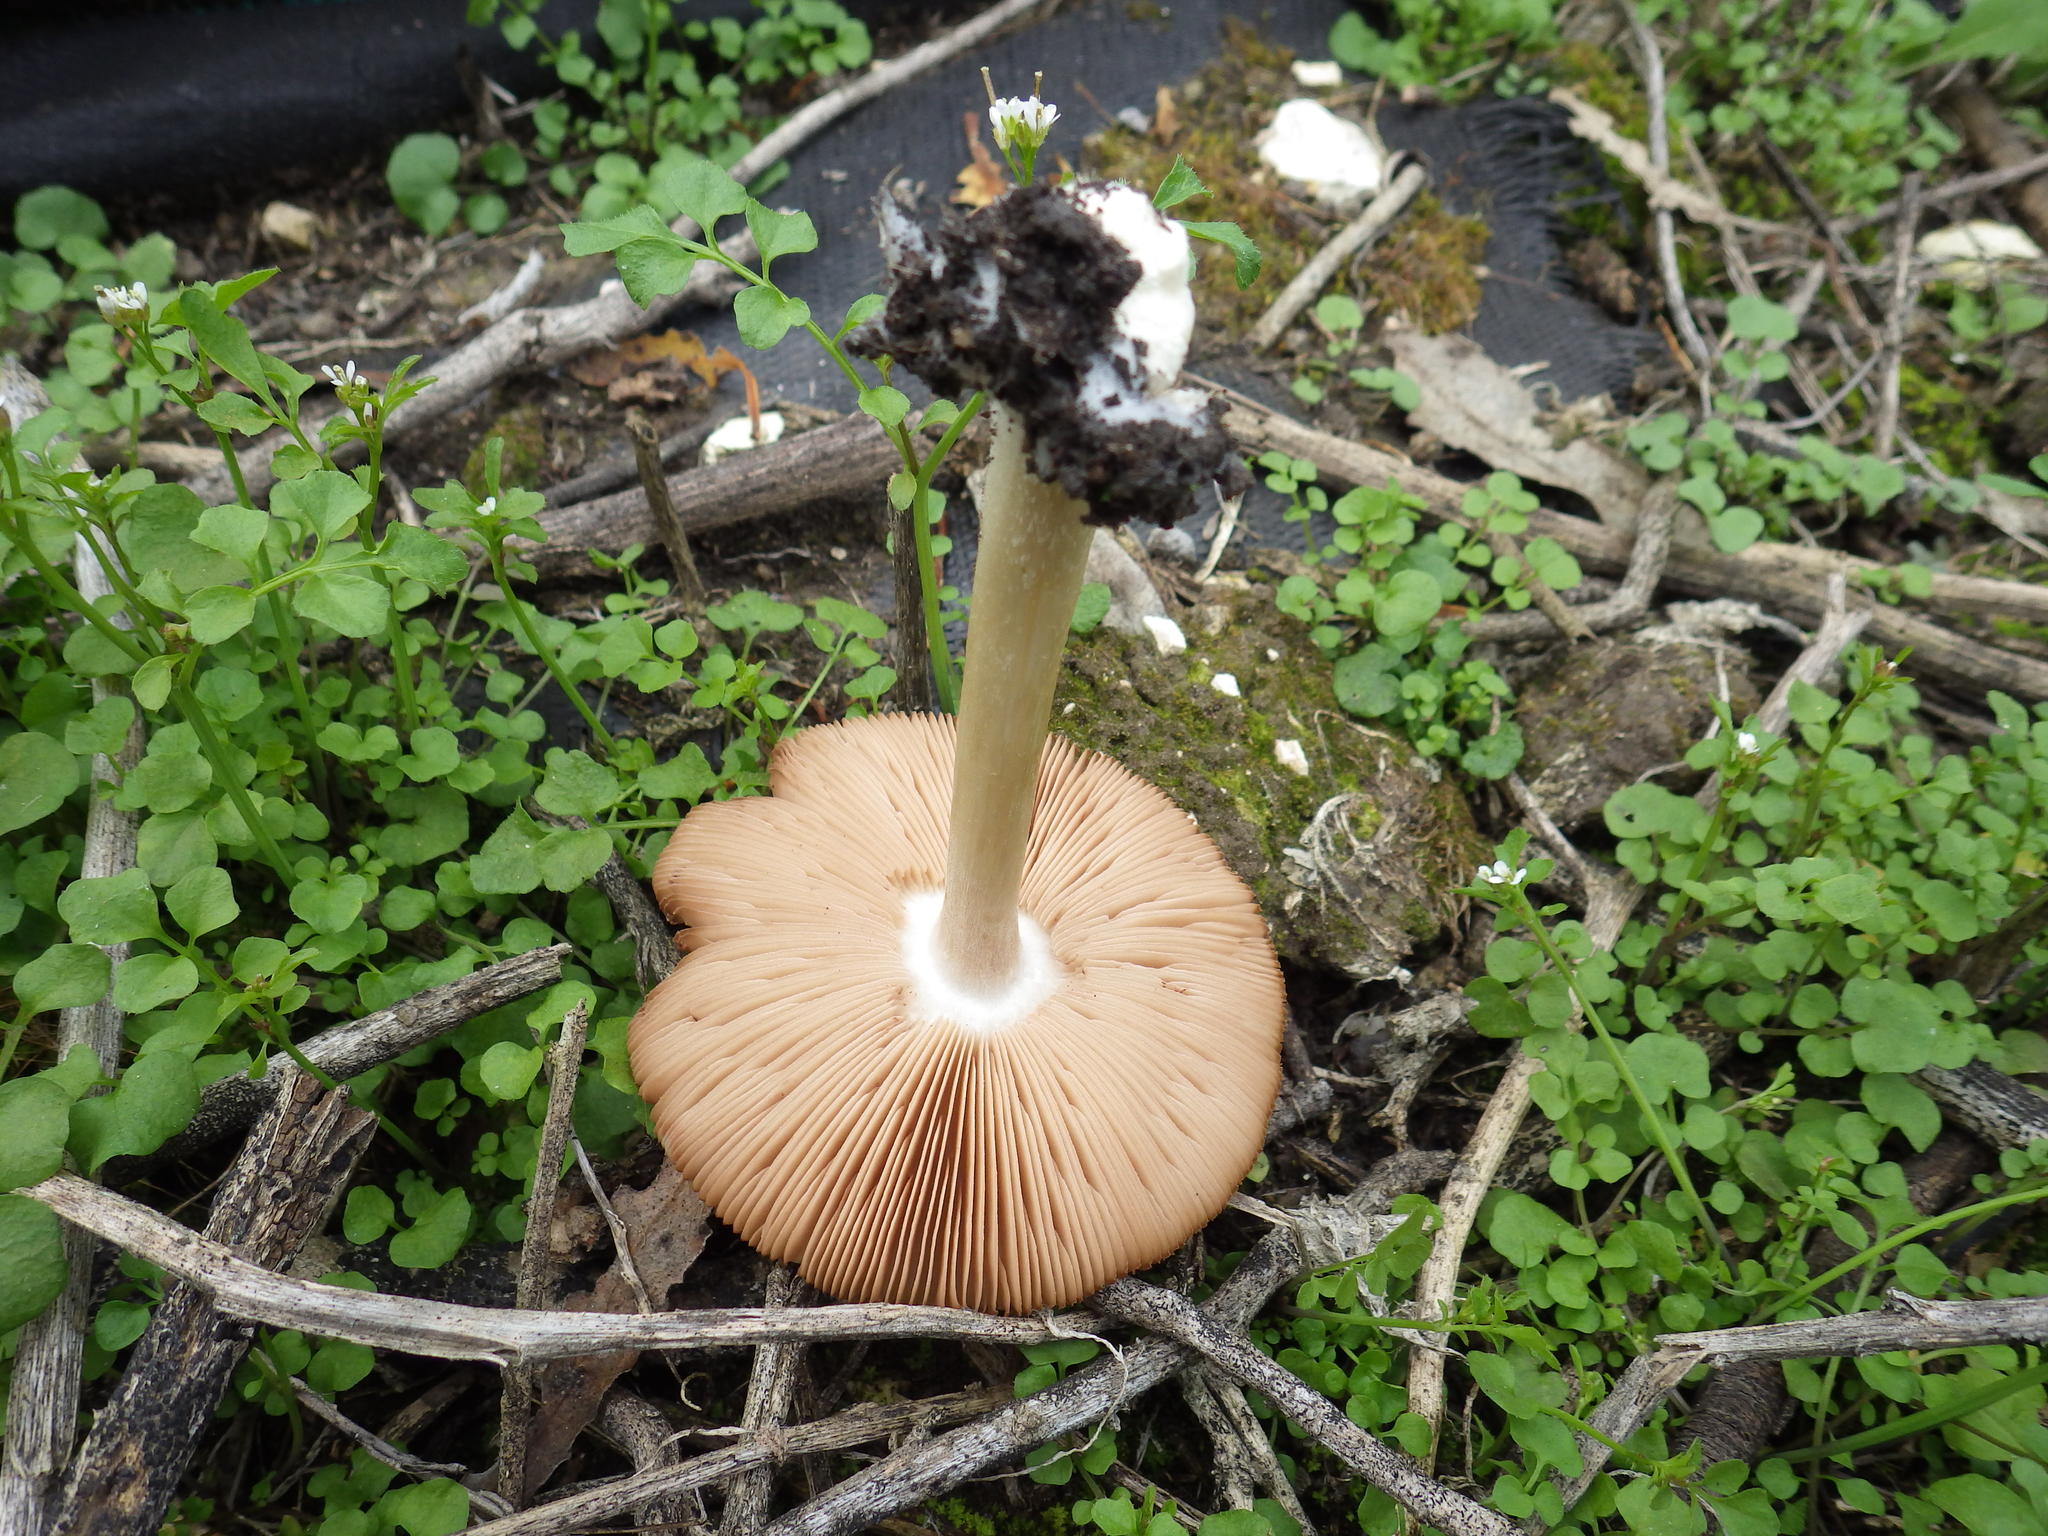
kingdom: Fungi
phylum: Basidiomycota
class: Agaricomycetes
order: Agaricales
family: Pluteaceae
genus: Pluteus
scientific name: Pluteus petasatus
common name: Scaly shield
